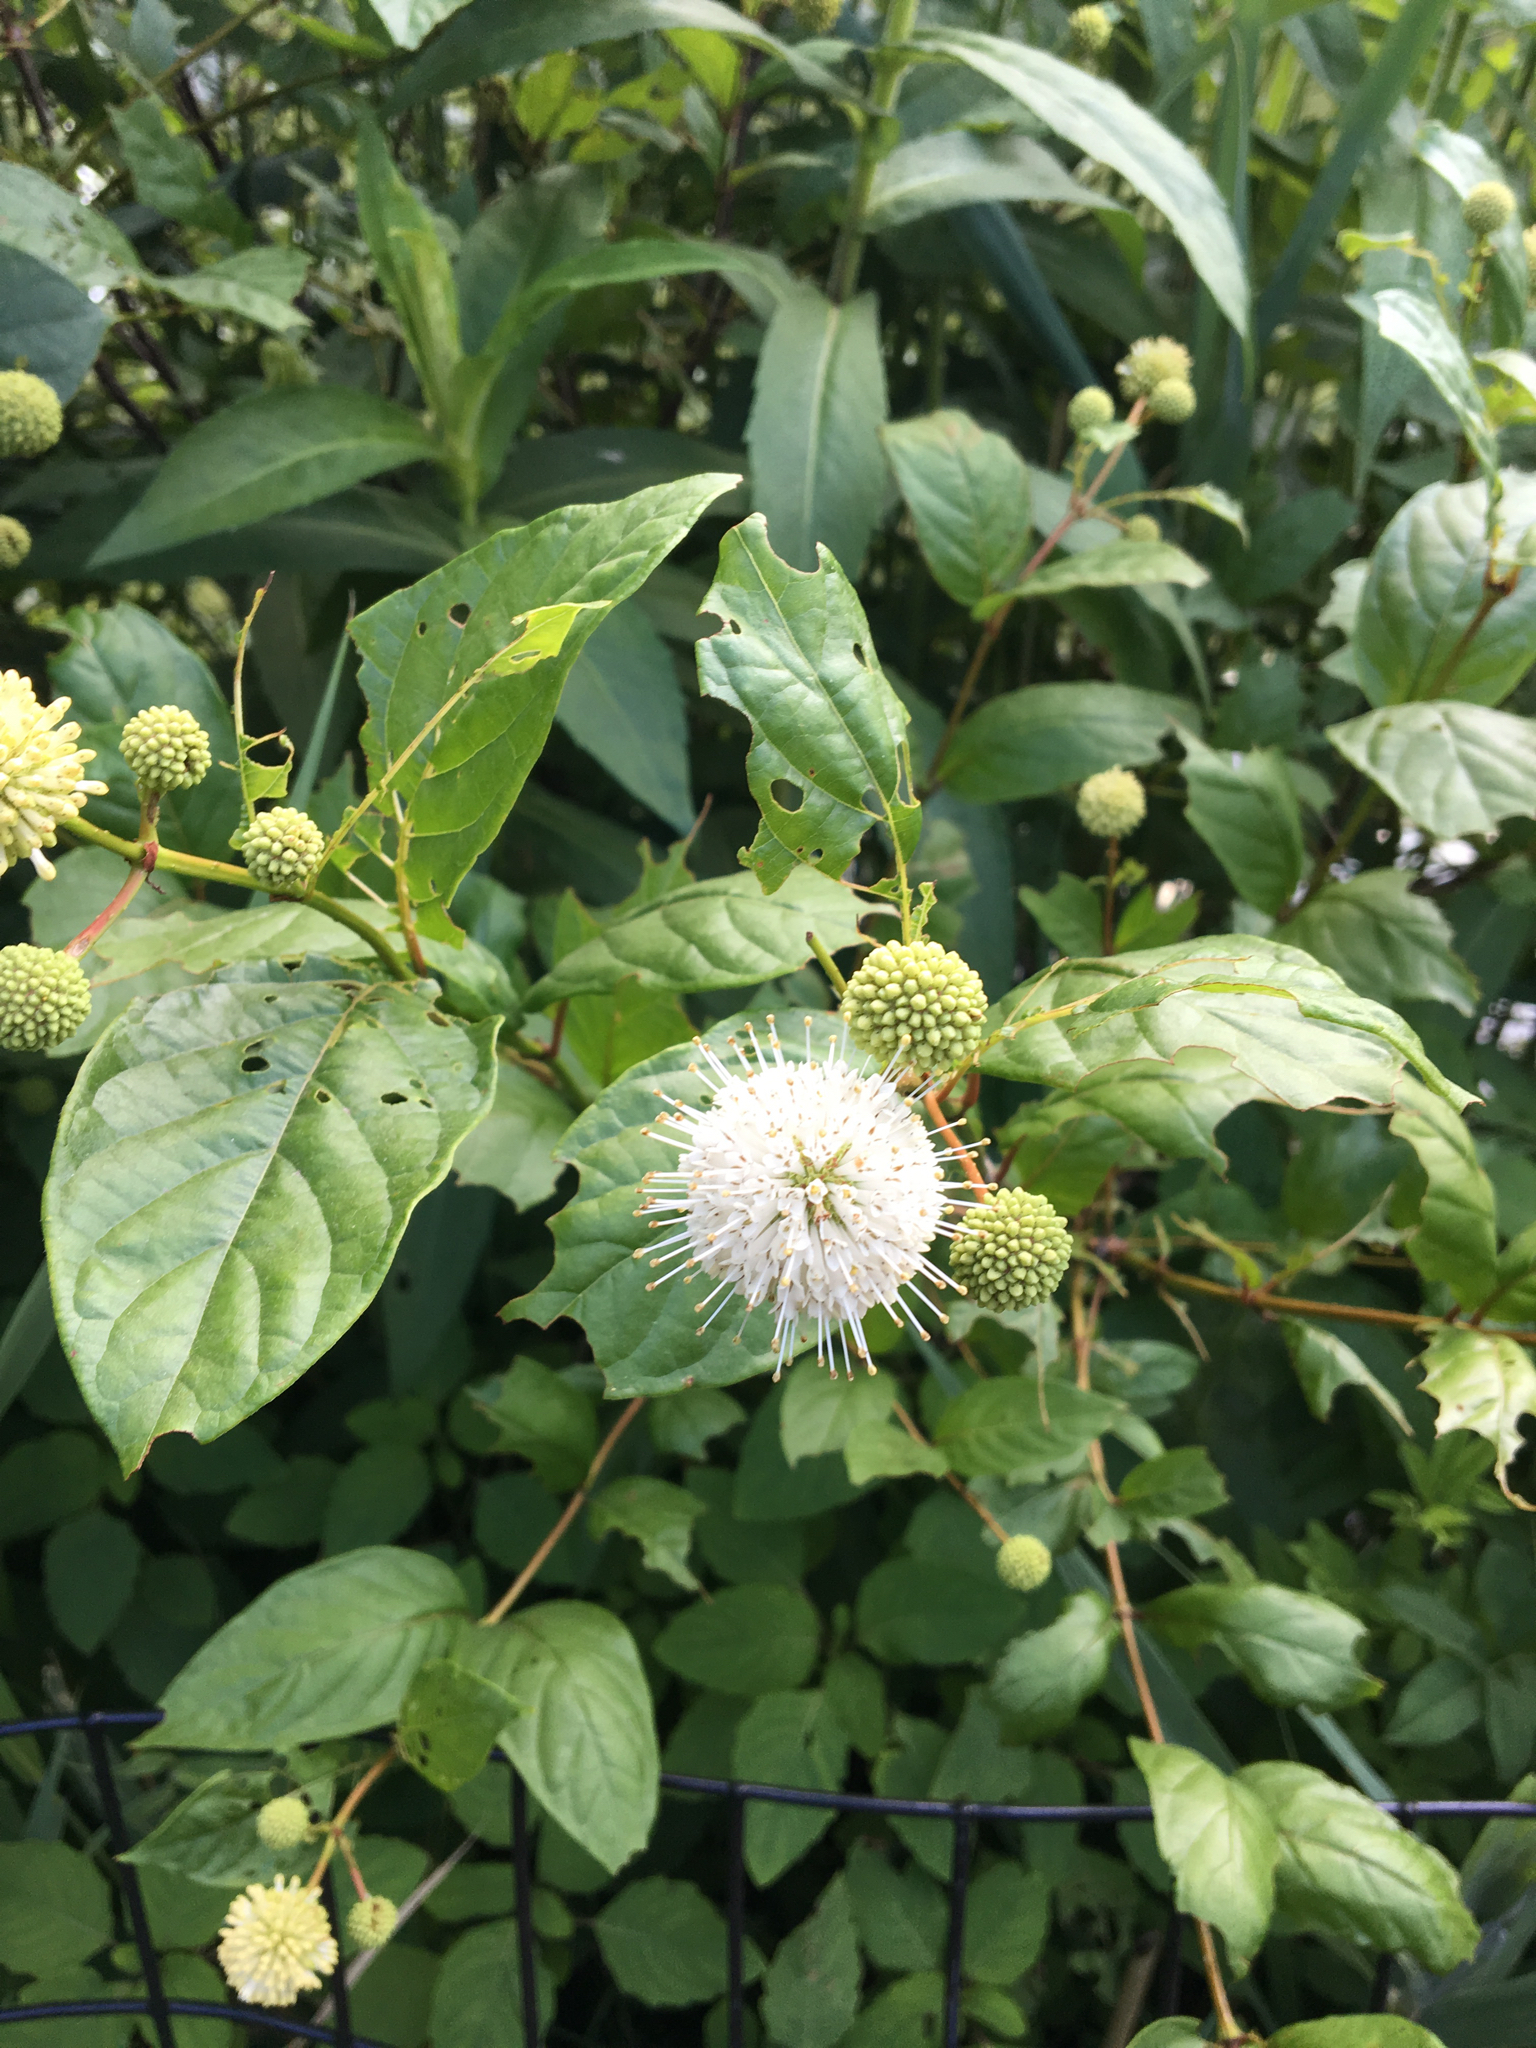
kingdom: Plantae
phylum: Tracheophyta
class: Magnoliopsida
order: Gentianales
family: Rubiaceae
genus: Cephalanthus
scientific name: Cephalanthus occidentalis
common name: Button-willow
